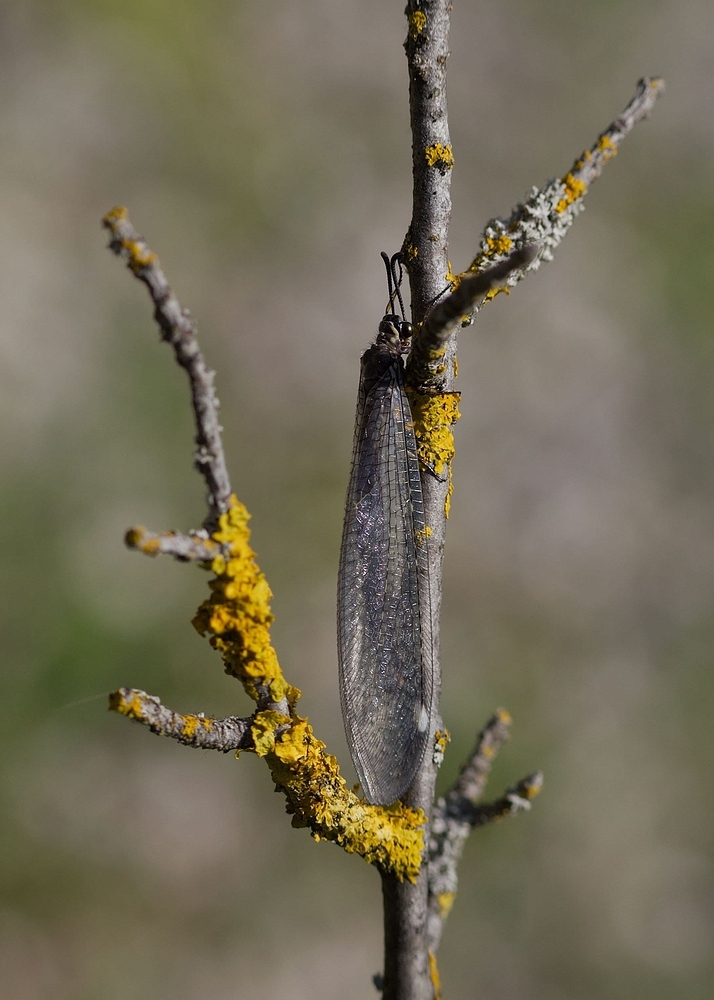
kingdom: Animalia
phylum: Arthropoda
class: Insecta
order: Neuroptera
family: Myrmeleontidae
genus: Myrmeleon
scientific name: Myrmeleon formicarius
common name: Ant-lion
